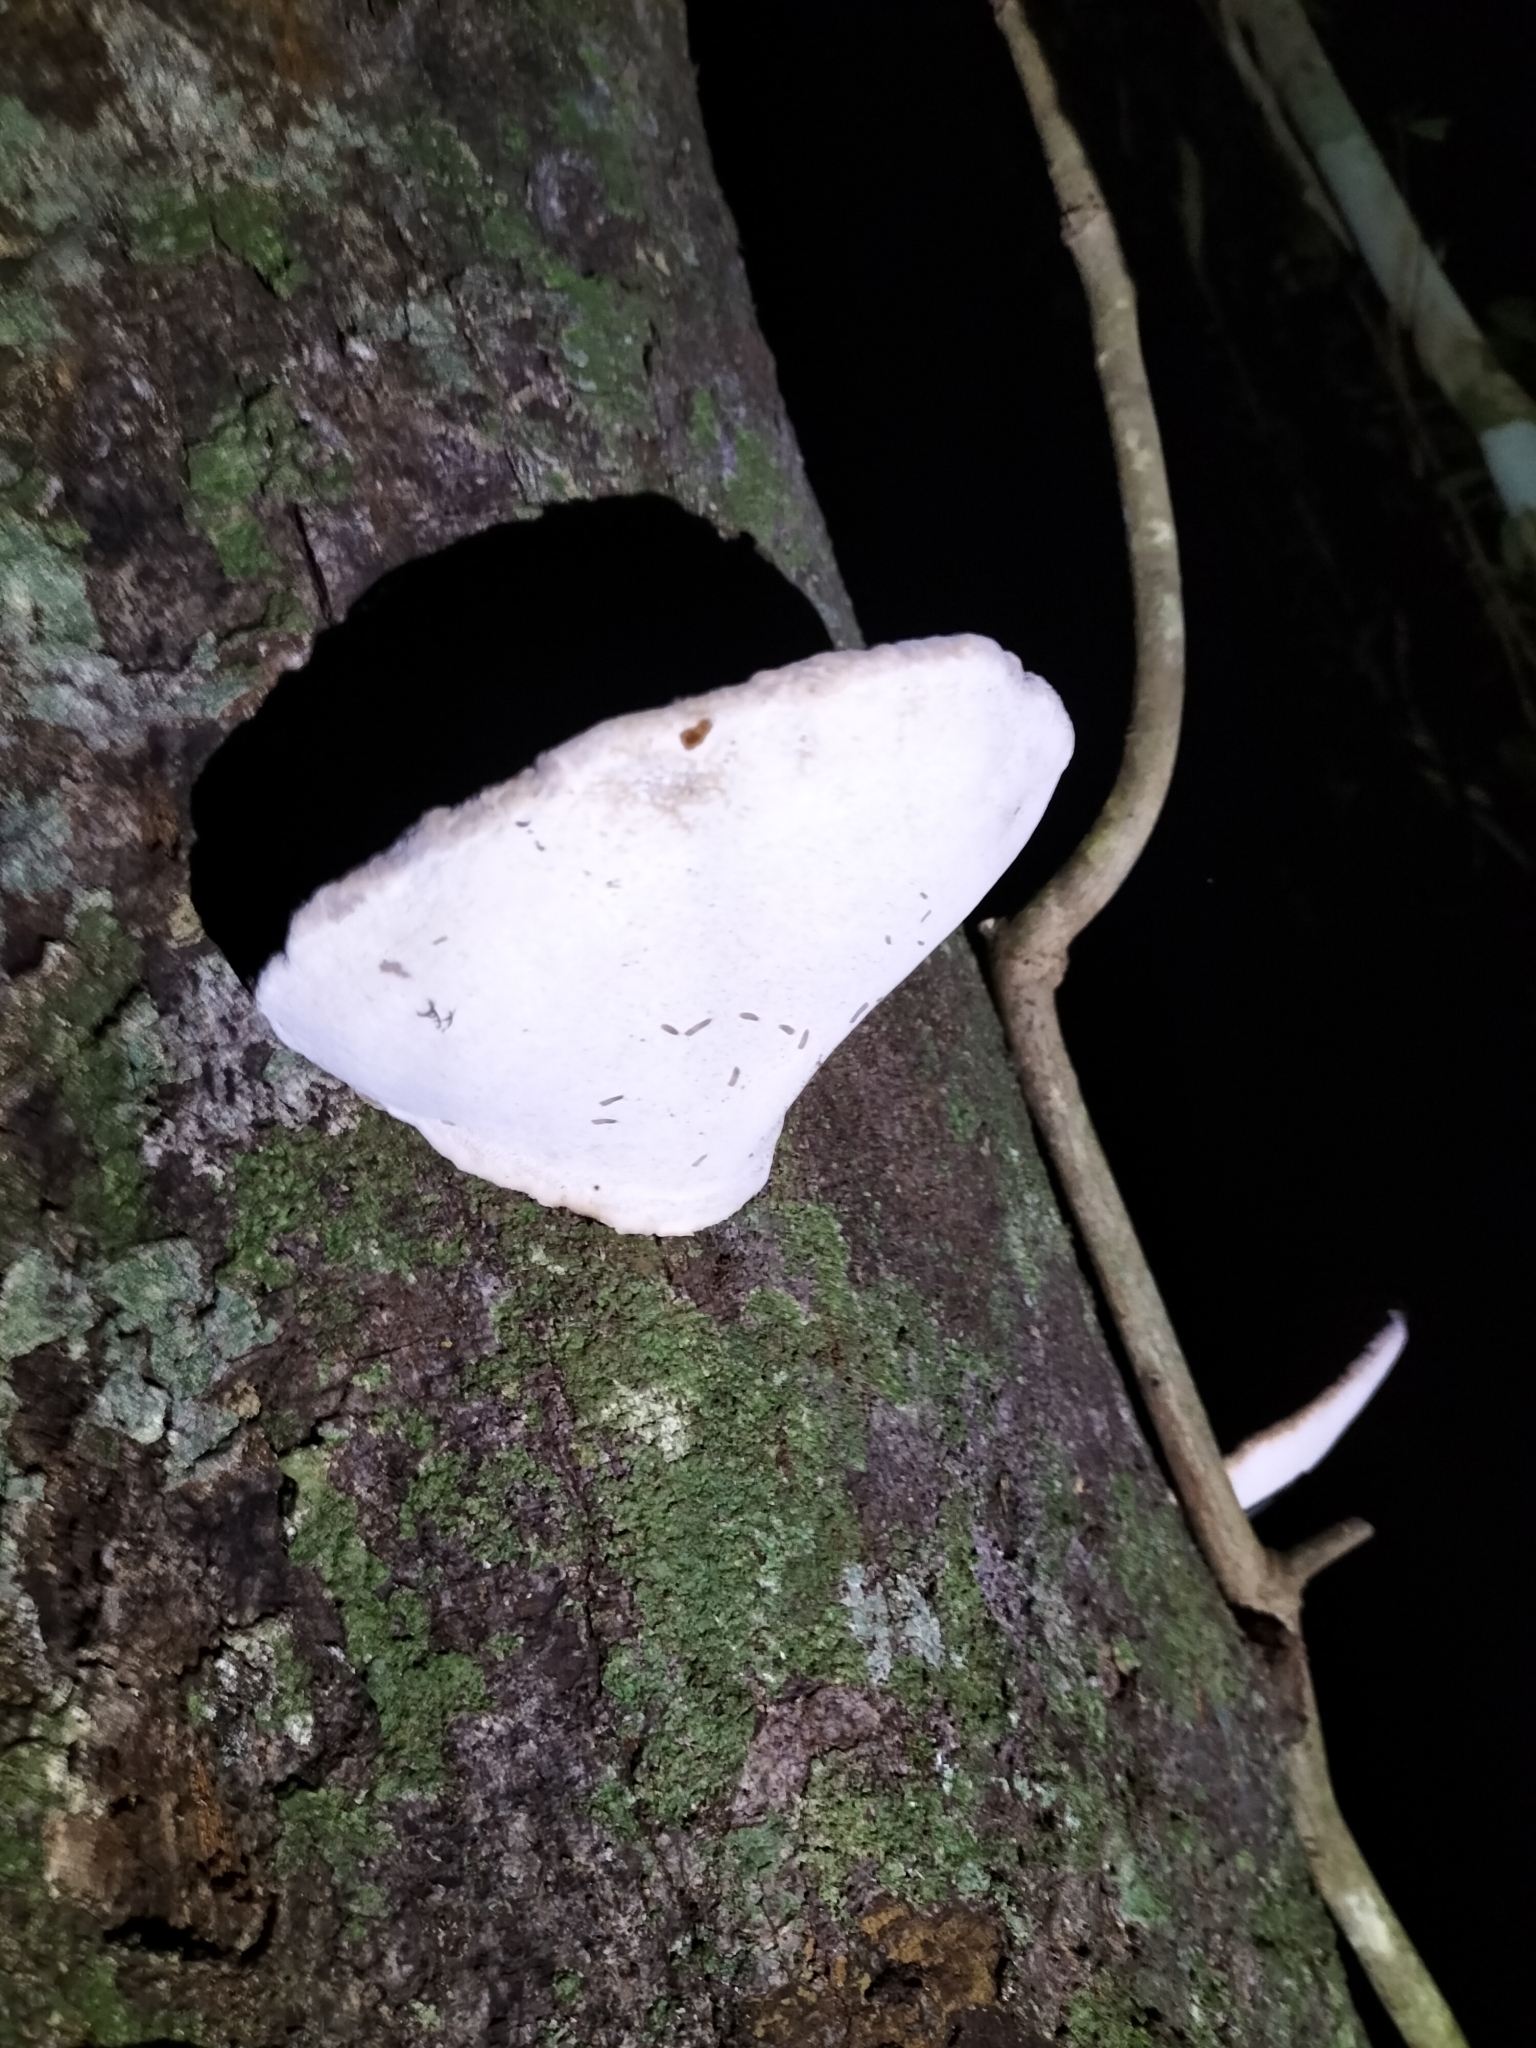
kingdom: Fungi
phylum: Basidiomycota
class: Agaricomycetes
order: Polyporales
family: Polyporaceae
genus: Ganoderma
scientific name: Ganoderma australe
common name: Southern bracket
